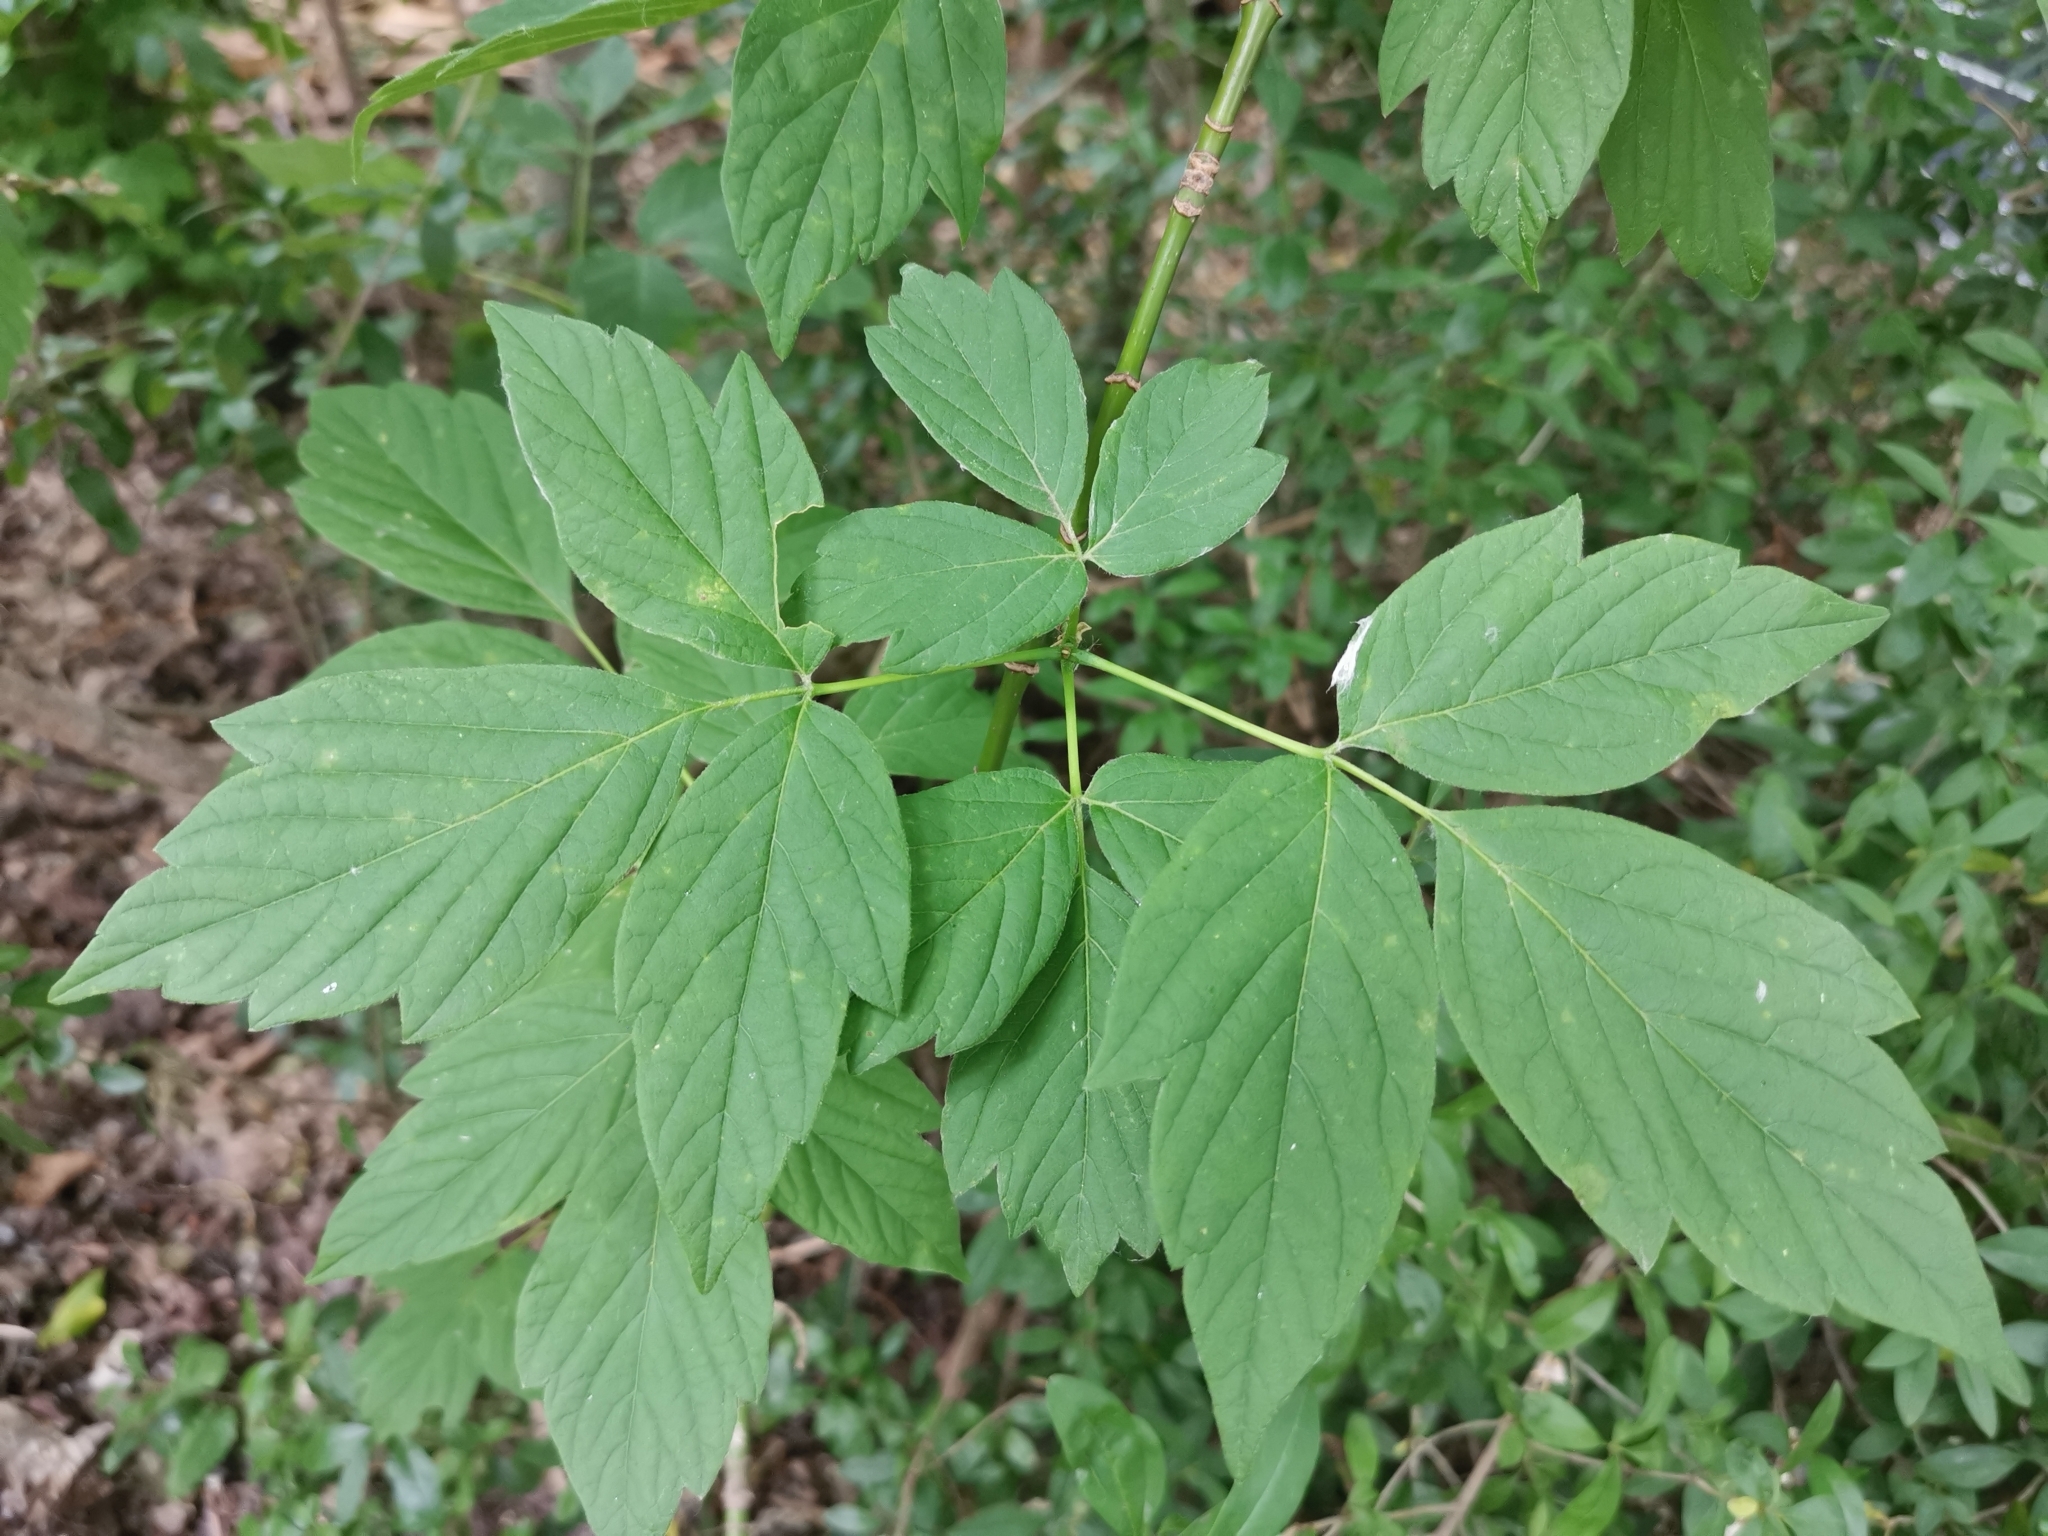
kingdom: Plantae
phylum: Tracheophyta
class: Magnoliopsida
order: Sapindales
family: Sapindaceae
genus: Acer
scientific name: Acer negundo
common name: Ashleaf maple
